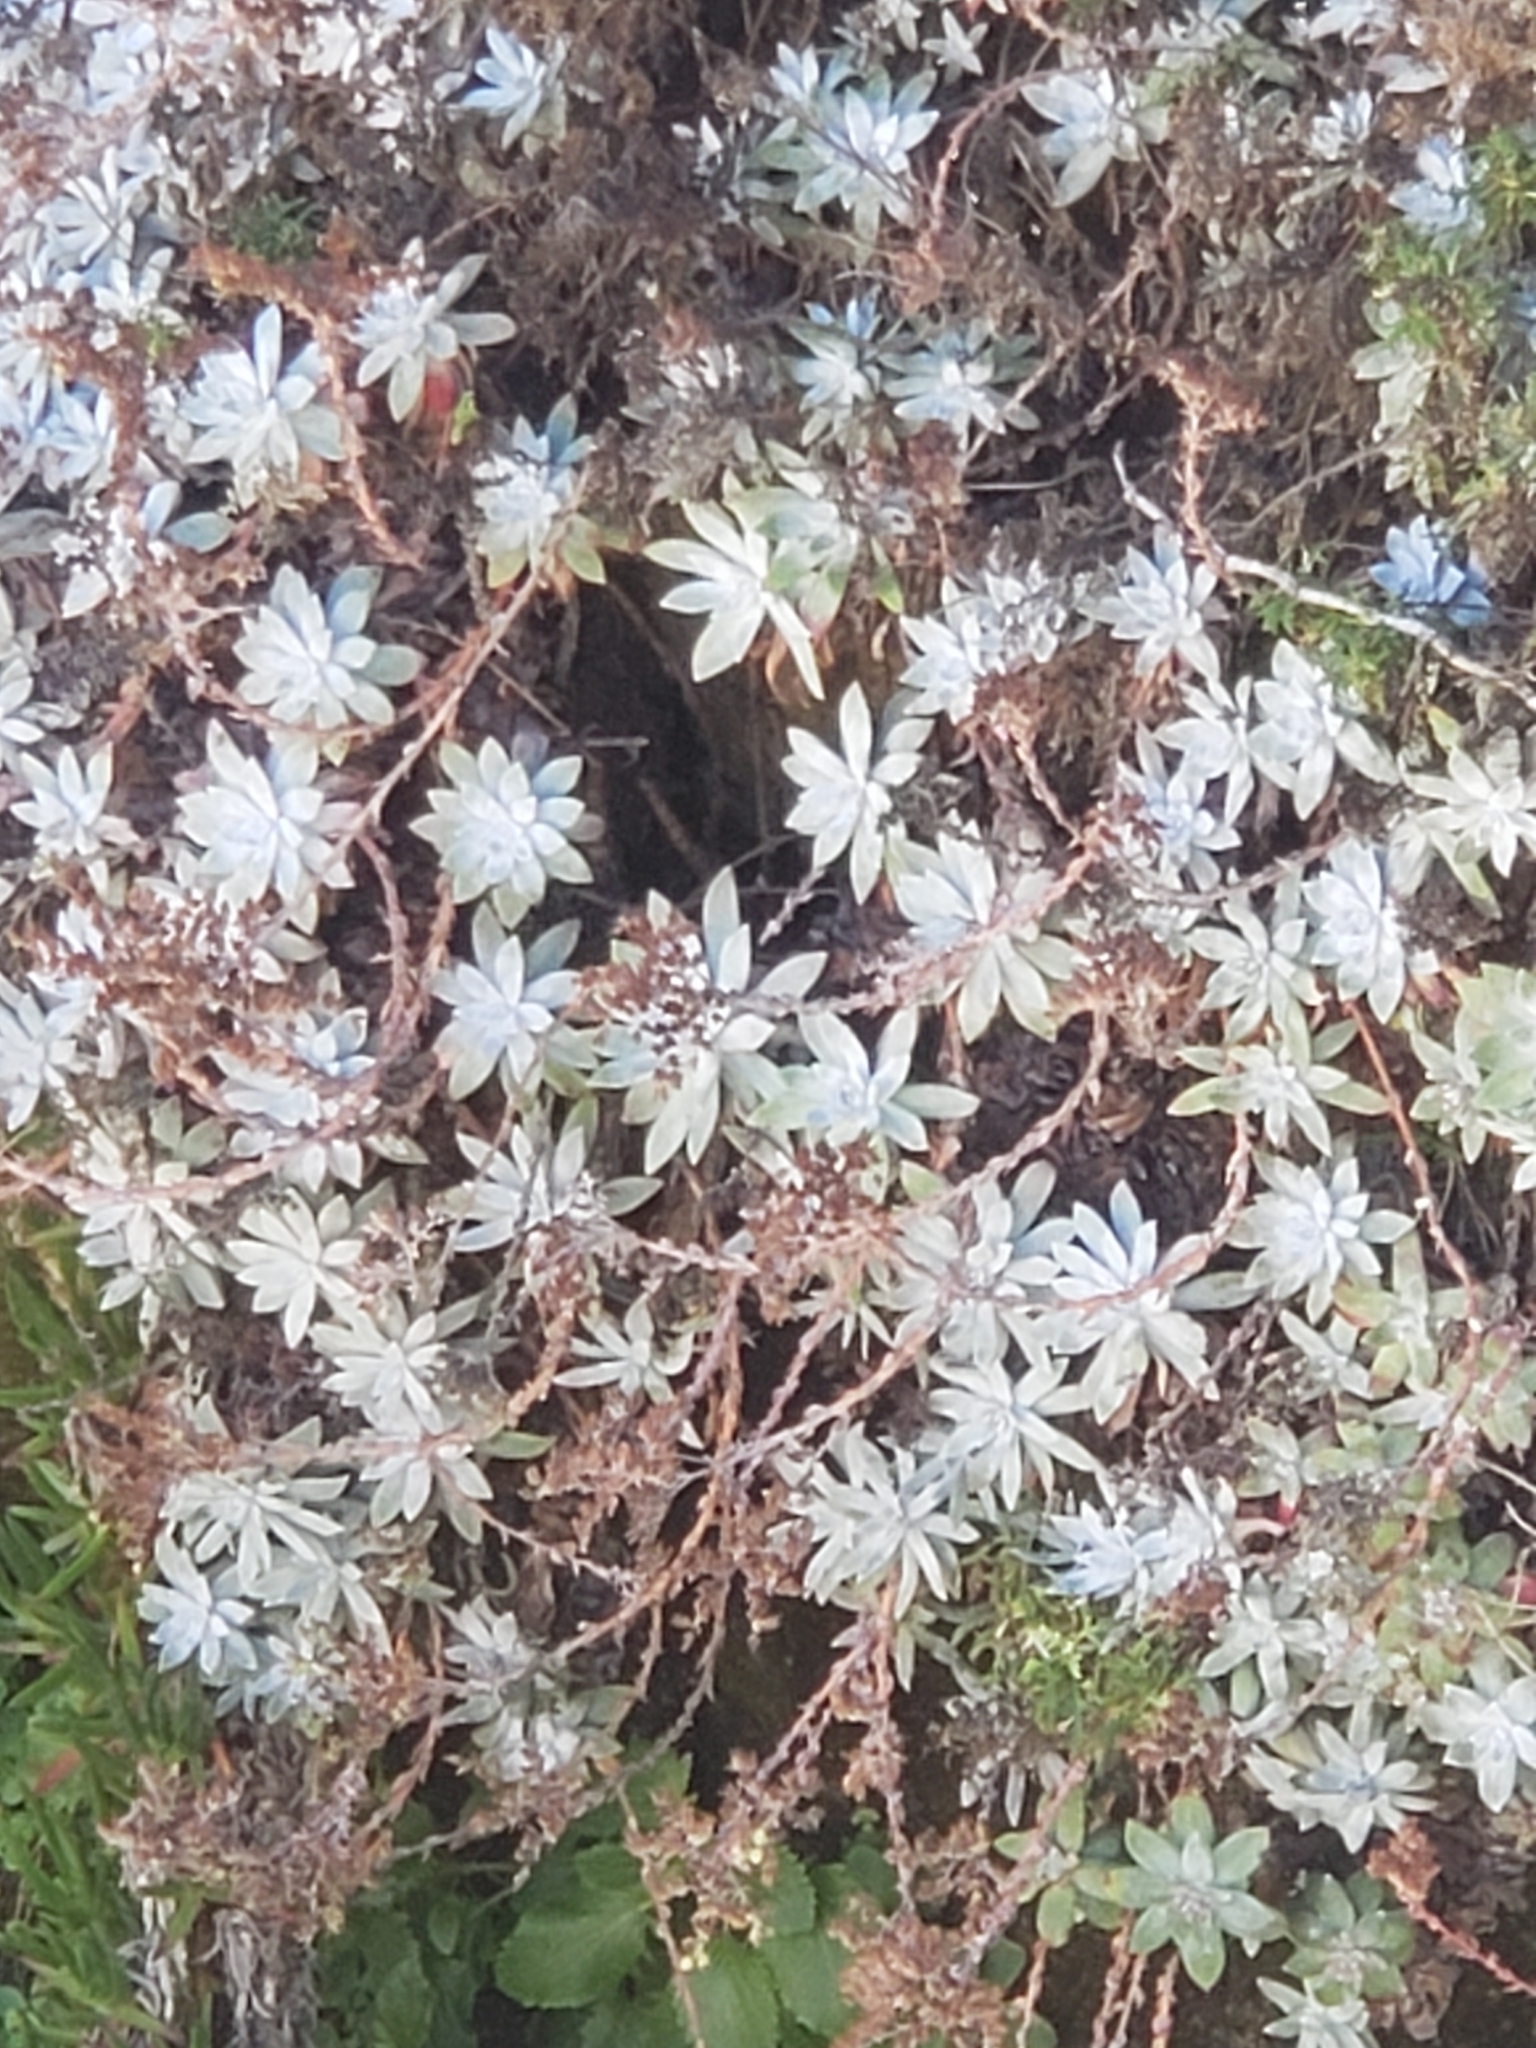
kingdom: Plantae
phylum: Tracheophyta
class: Magnoliopsida
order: Saxifragales
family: Crassulaceae
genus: Dudleya
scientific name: Dudleya farinosa
